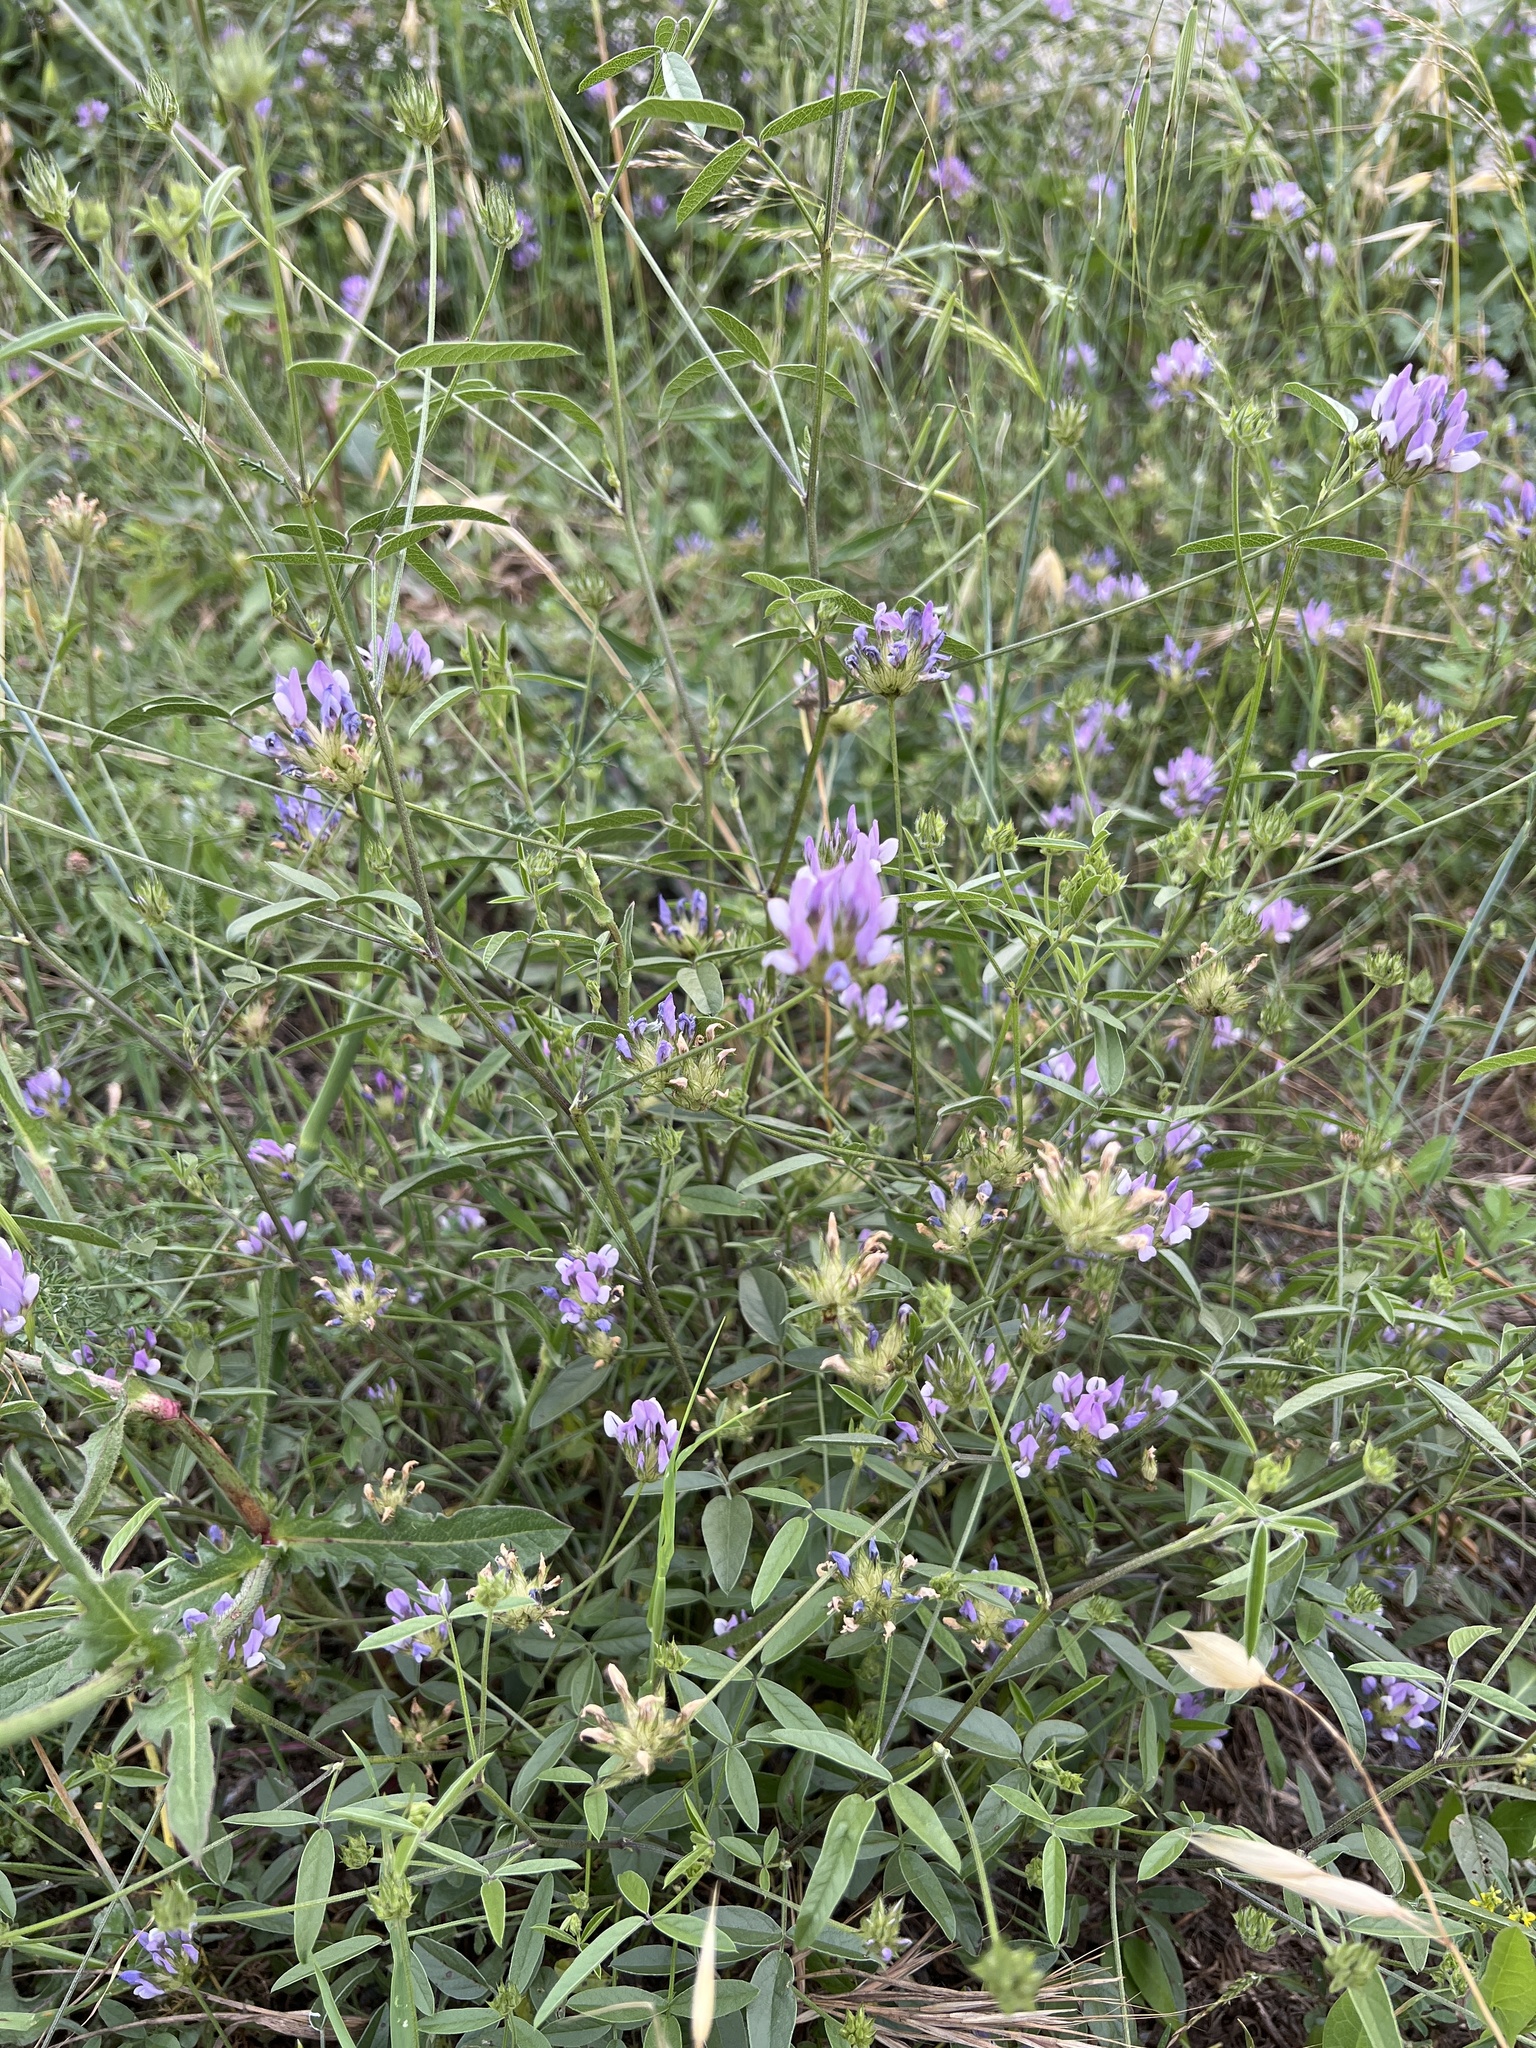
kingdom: Plantae
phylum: Tracheophyta
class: Magnoliopsida
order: Fabales
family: Fabaceae
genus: Bituminaria
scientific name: Bituminaria bituminosa
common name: Arabian pea
